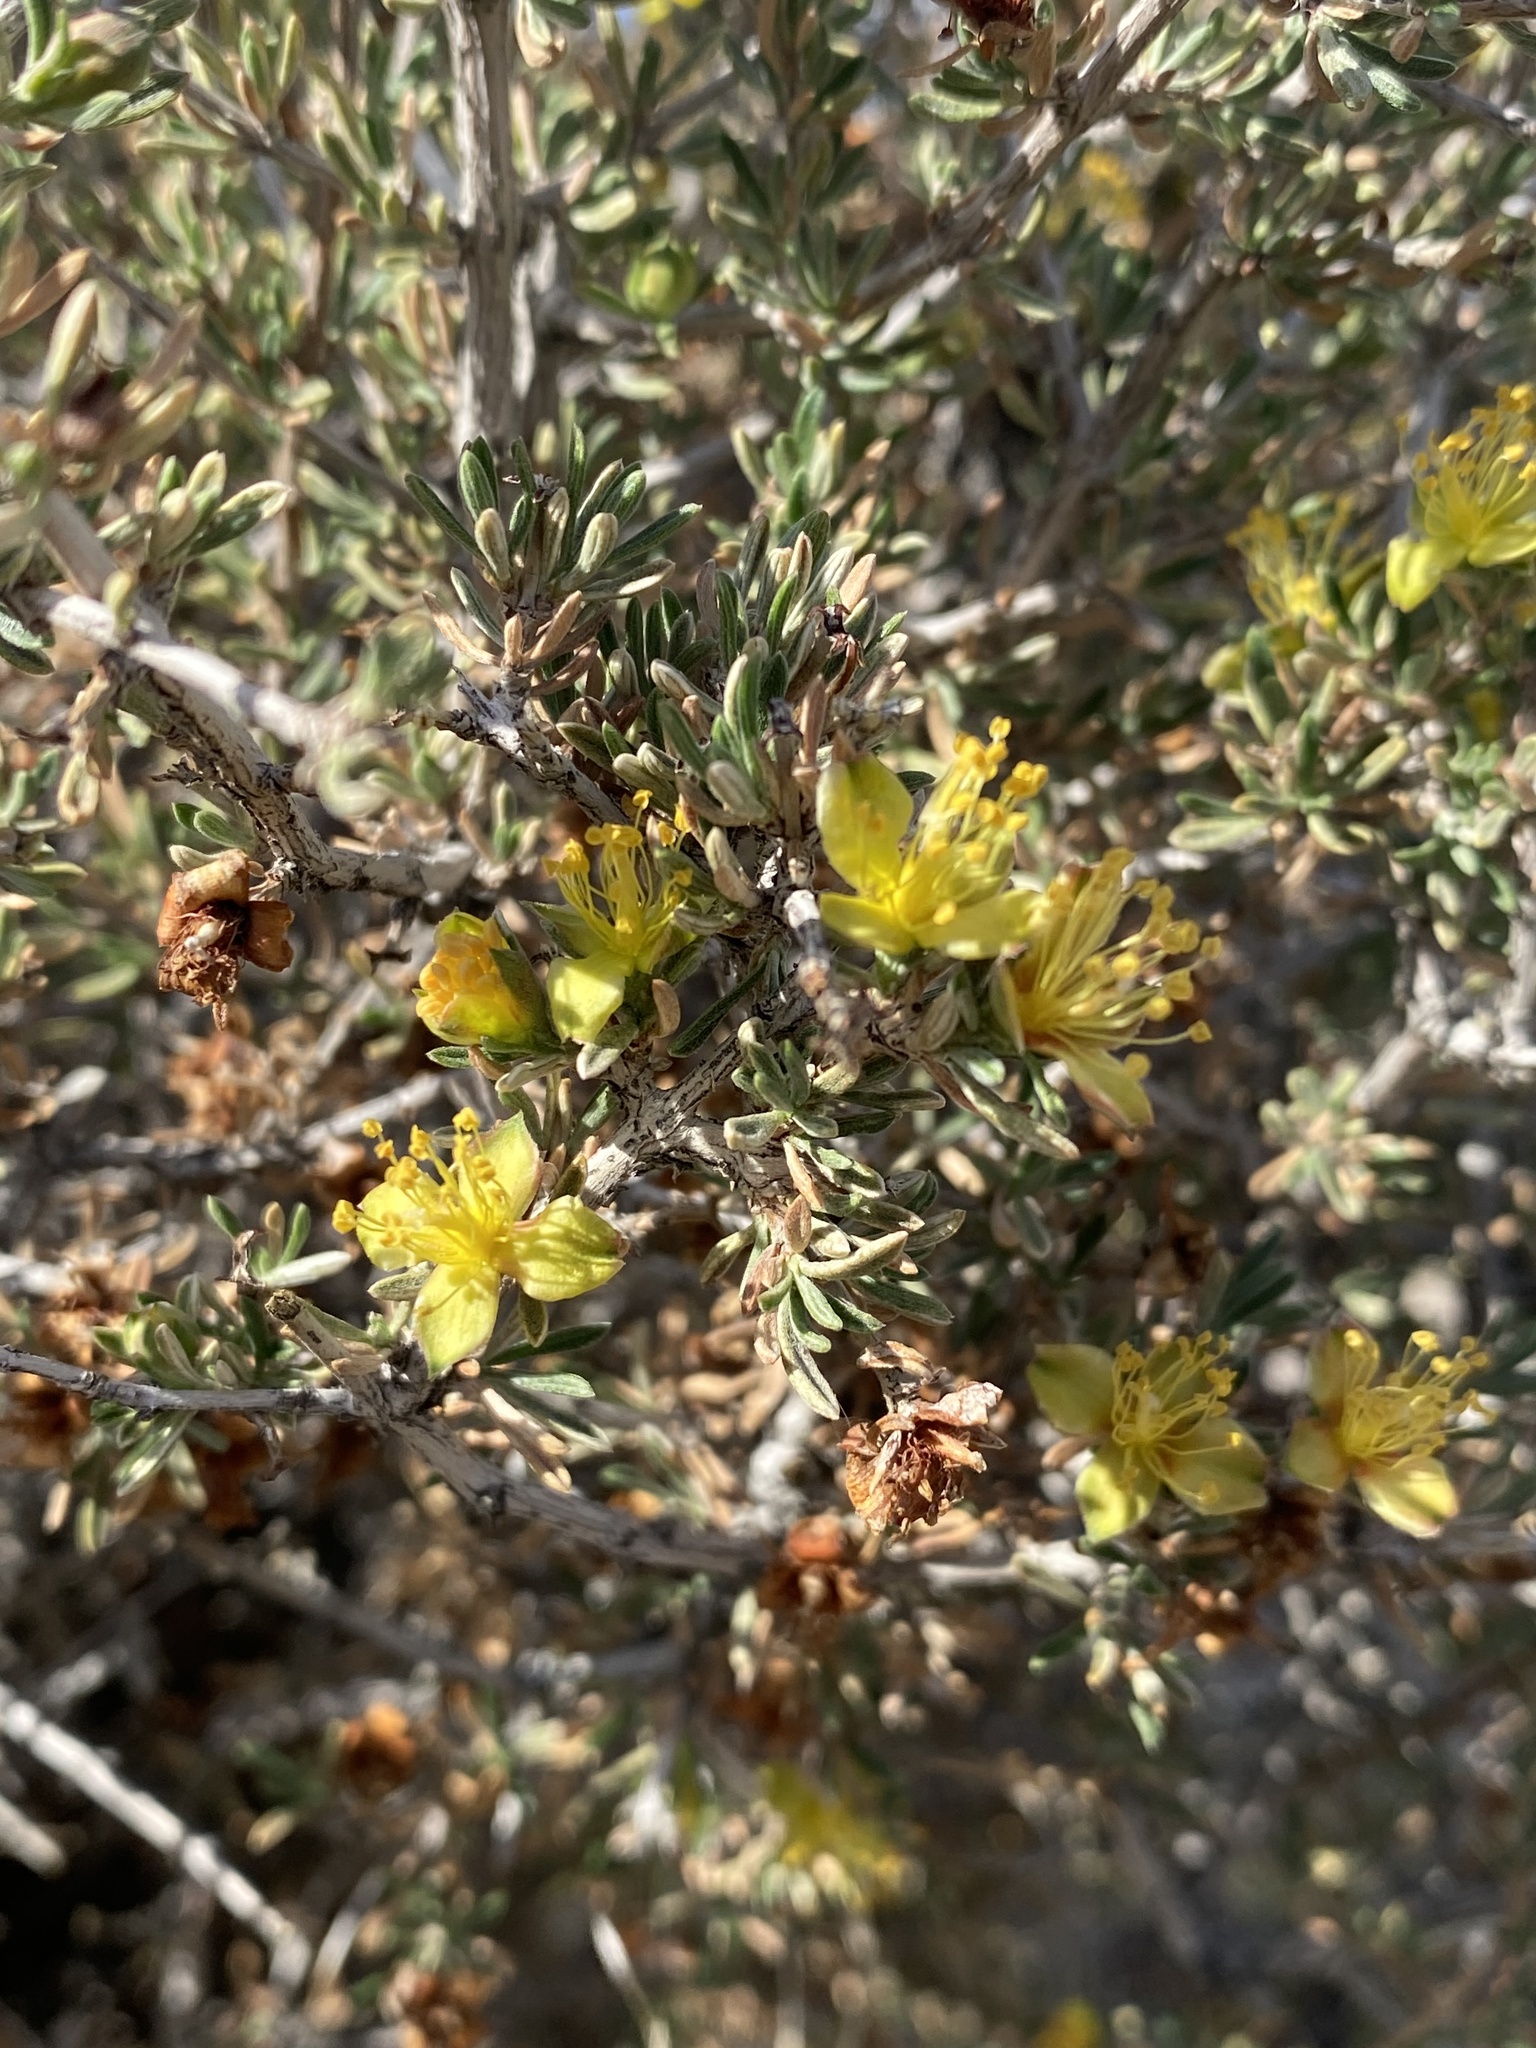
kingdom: Plantae
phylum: Tracheophyta
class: Magnoliopsida
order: Rosales
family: Rosaceae
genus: Coleogyne
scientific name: Coleogyne ramosissima
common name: Blackbrush
